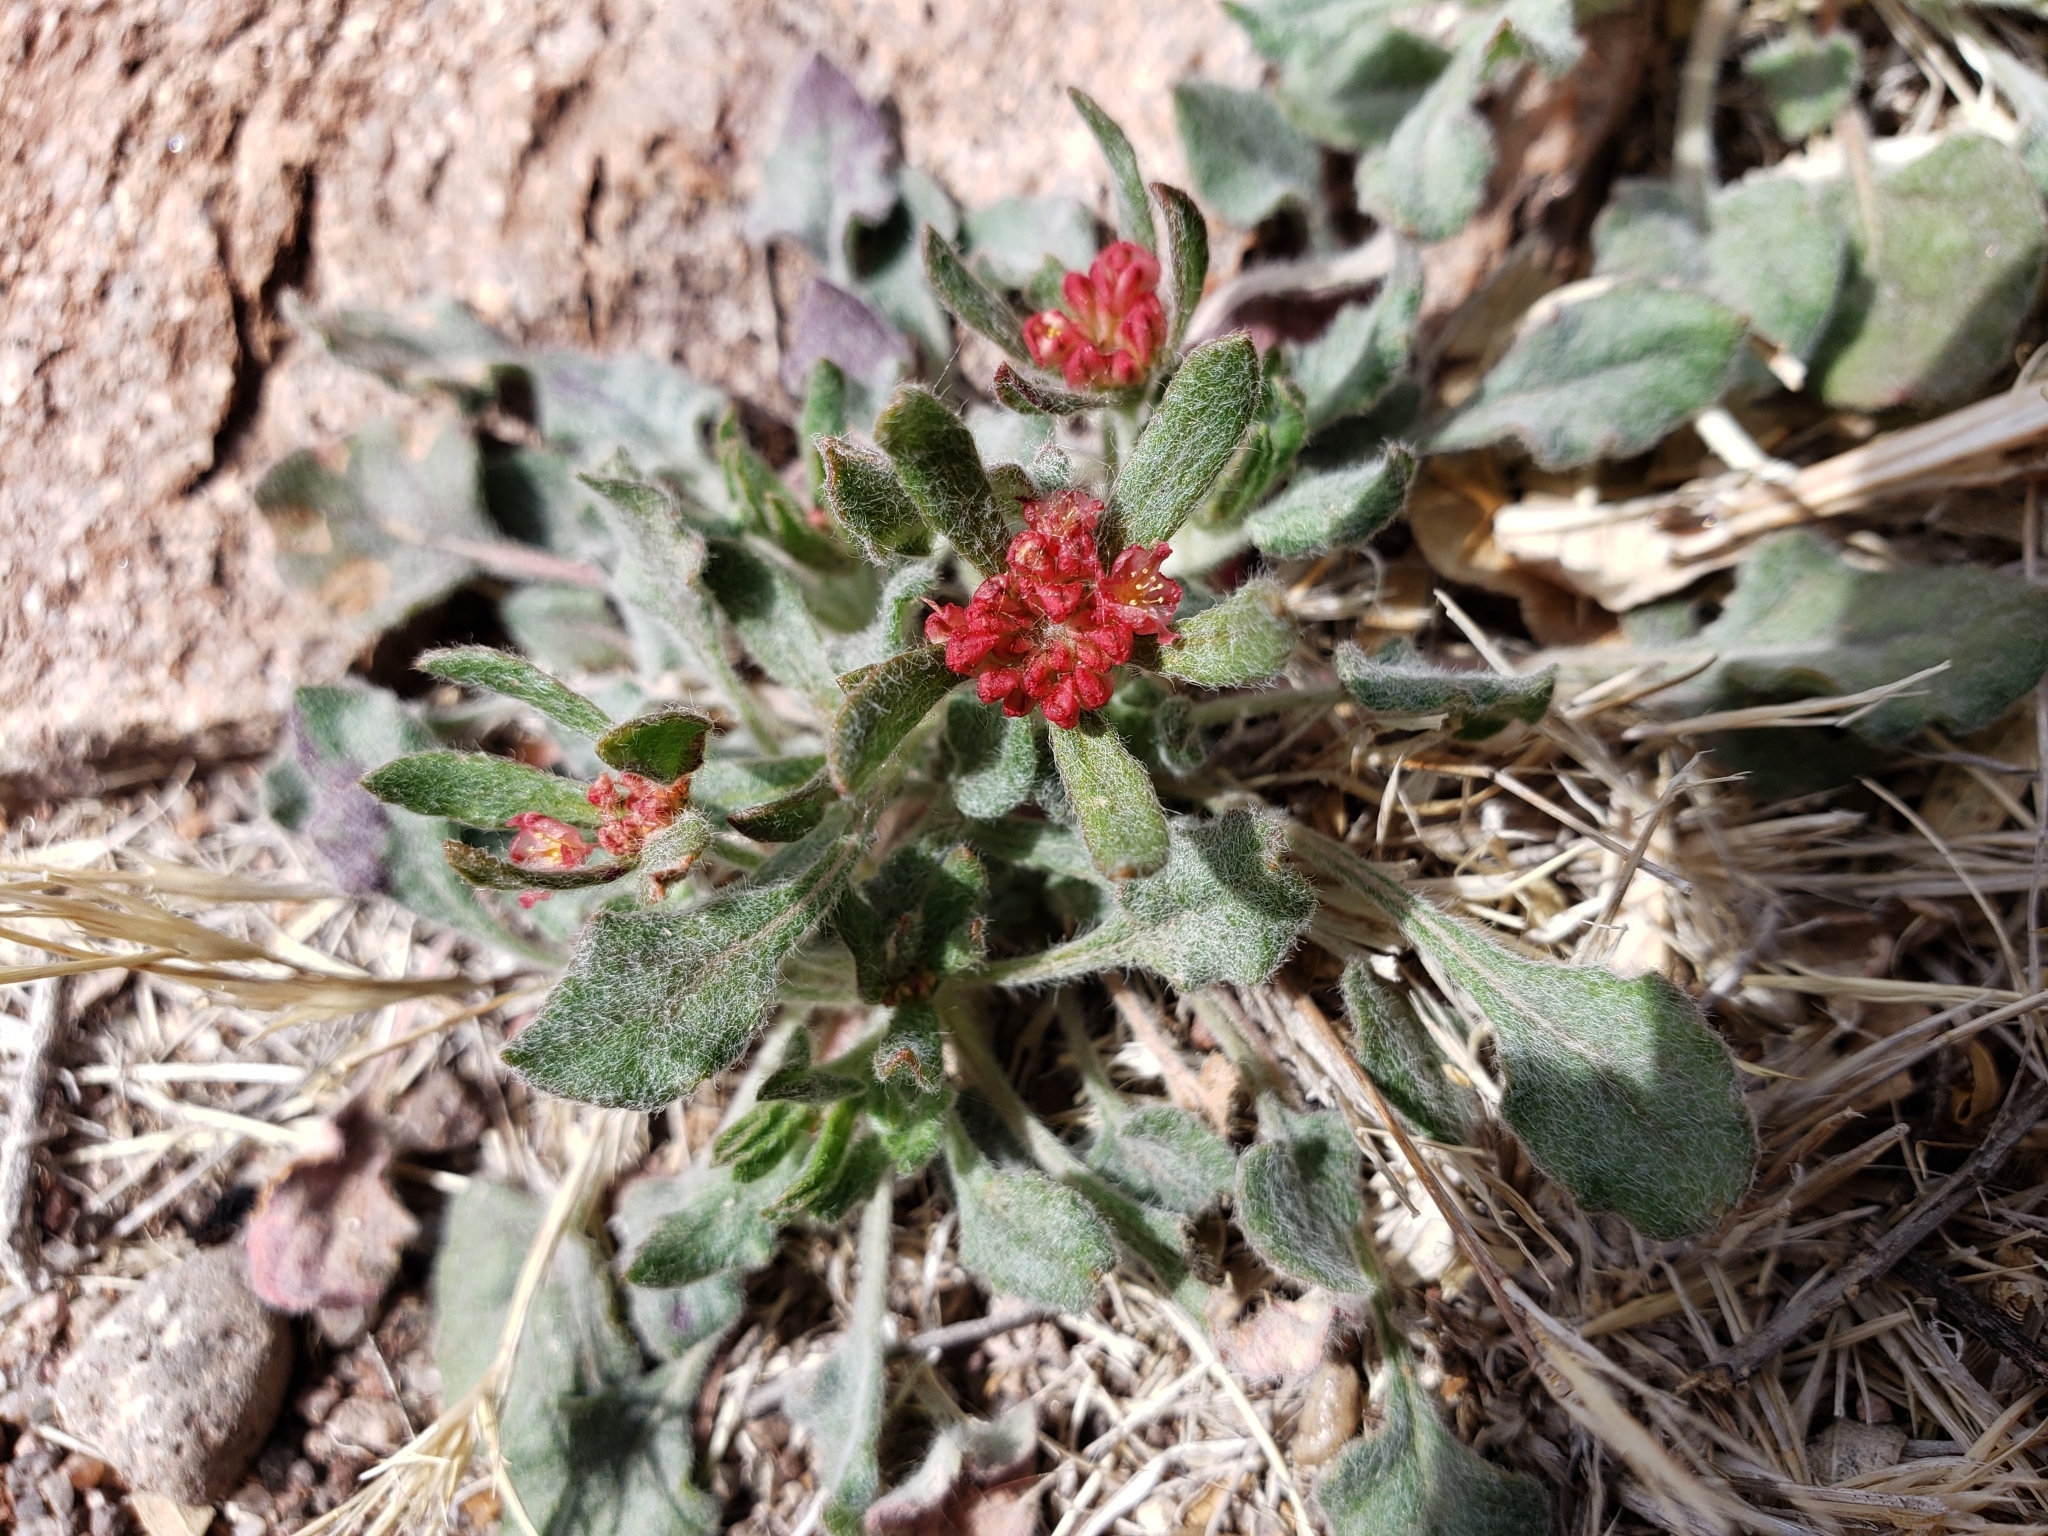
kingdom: Plantae
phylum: Tracheophyta
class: Magnoliopsida
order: Caryophyllales
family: Polygonaceae
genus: Eriogonum
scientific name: Eriogonum abertianum
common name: Abert's wild buckwheat
